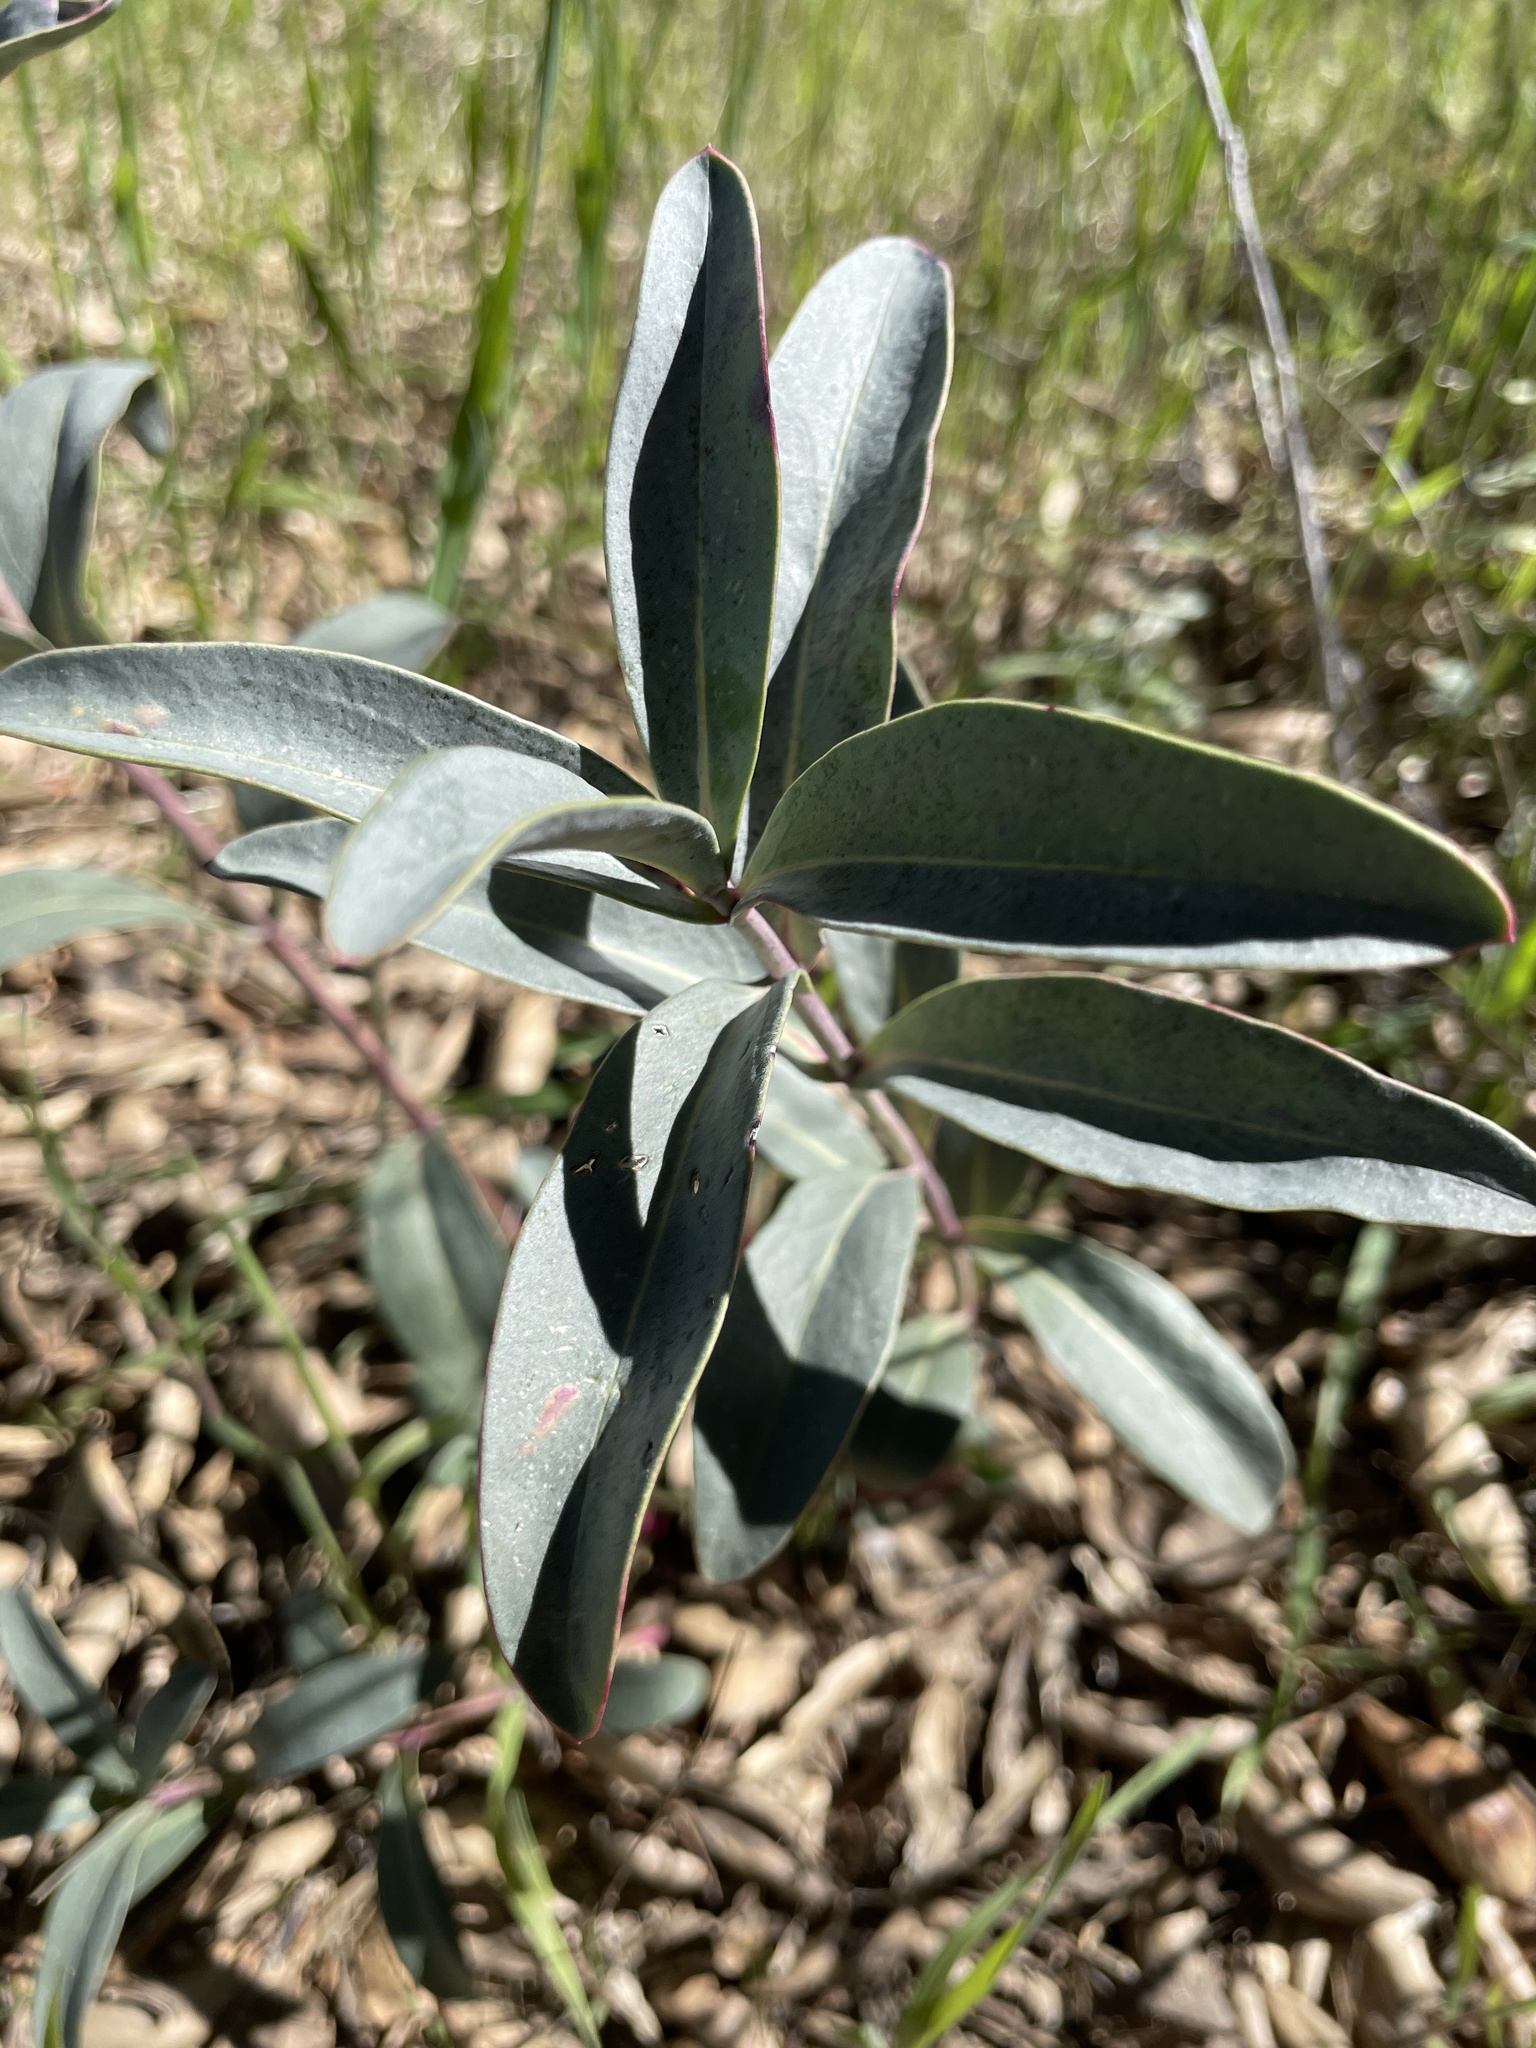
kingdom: Plantae
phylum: Tracheophyta
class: Magnoliopsida
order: Lamiales
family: Plantaginaceae
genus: Penstemon
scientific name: Penstemon centranthifolius
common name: Scarlet bugler
